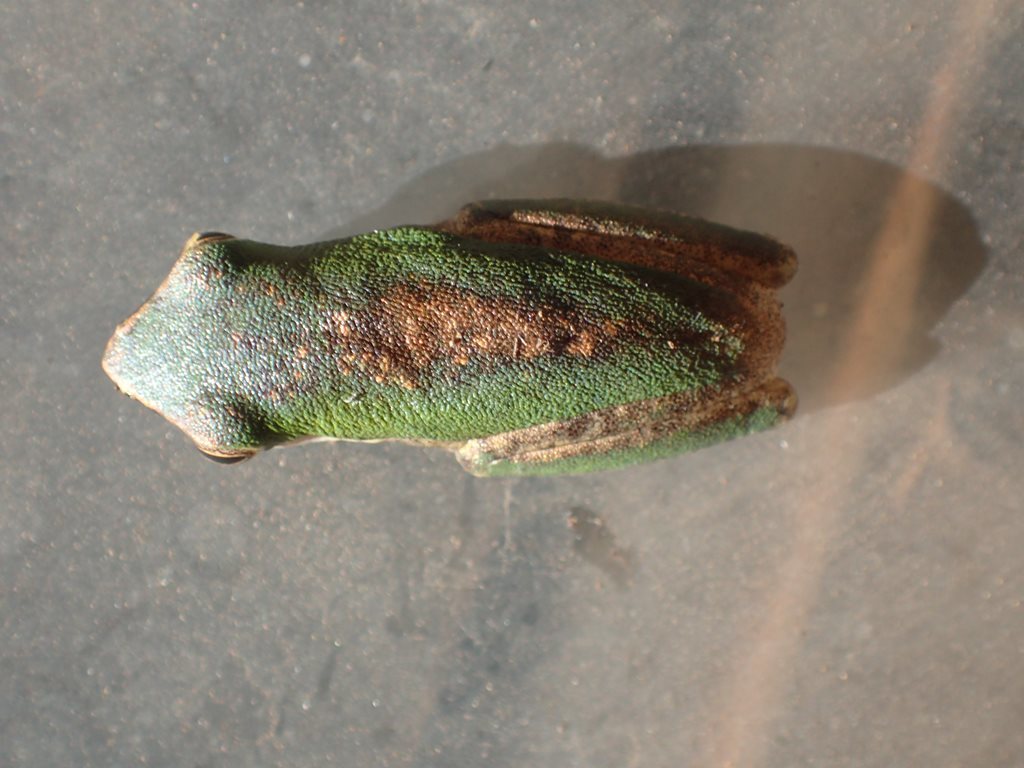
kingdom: Animalia
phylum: Chordata
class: Amphibia
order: Anura
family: Pelodryadidae
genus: Litoria
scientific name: Litoria bicolor
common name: Green reed frog
